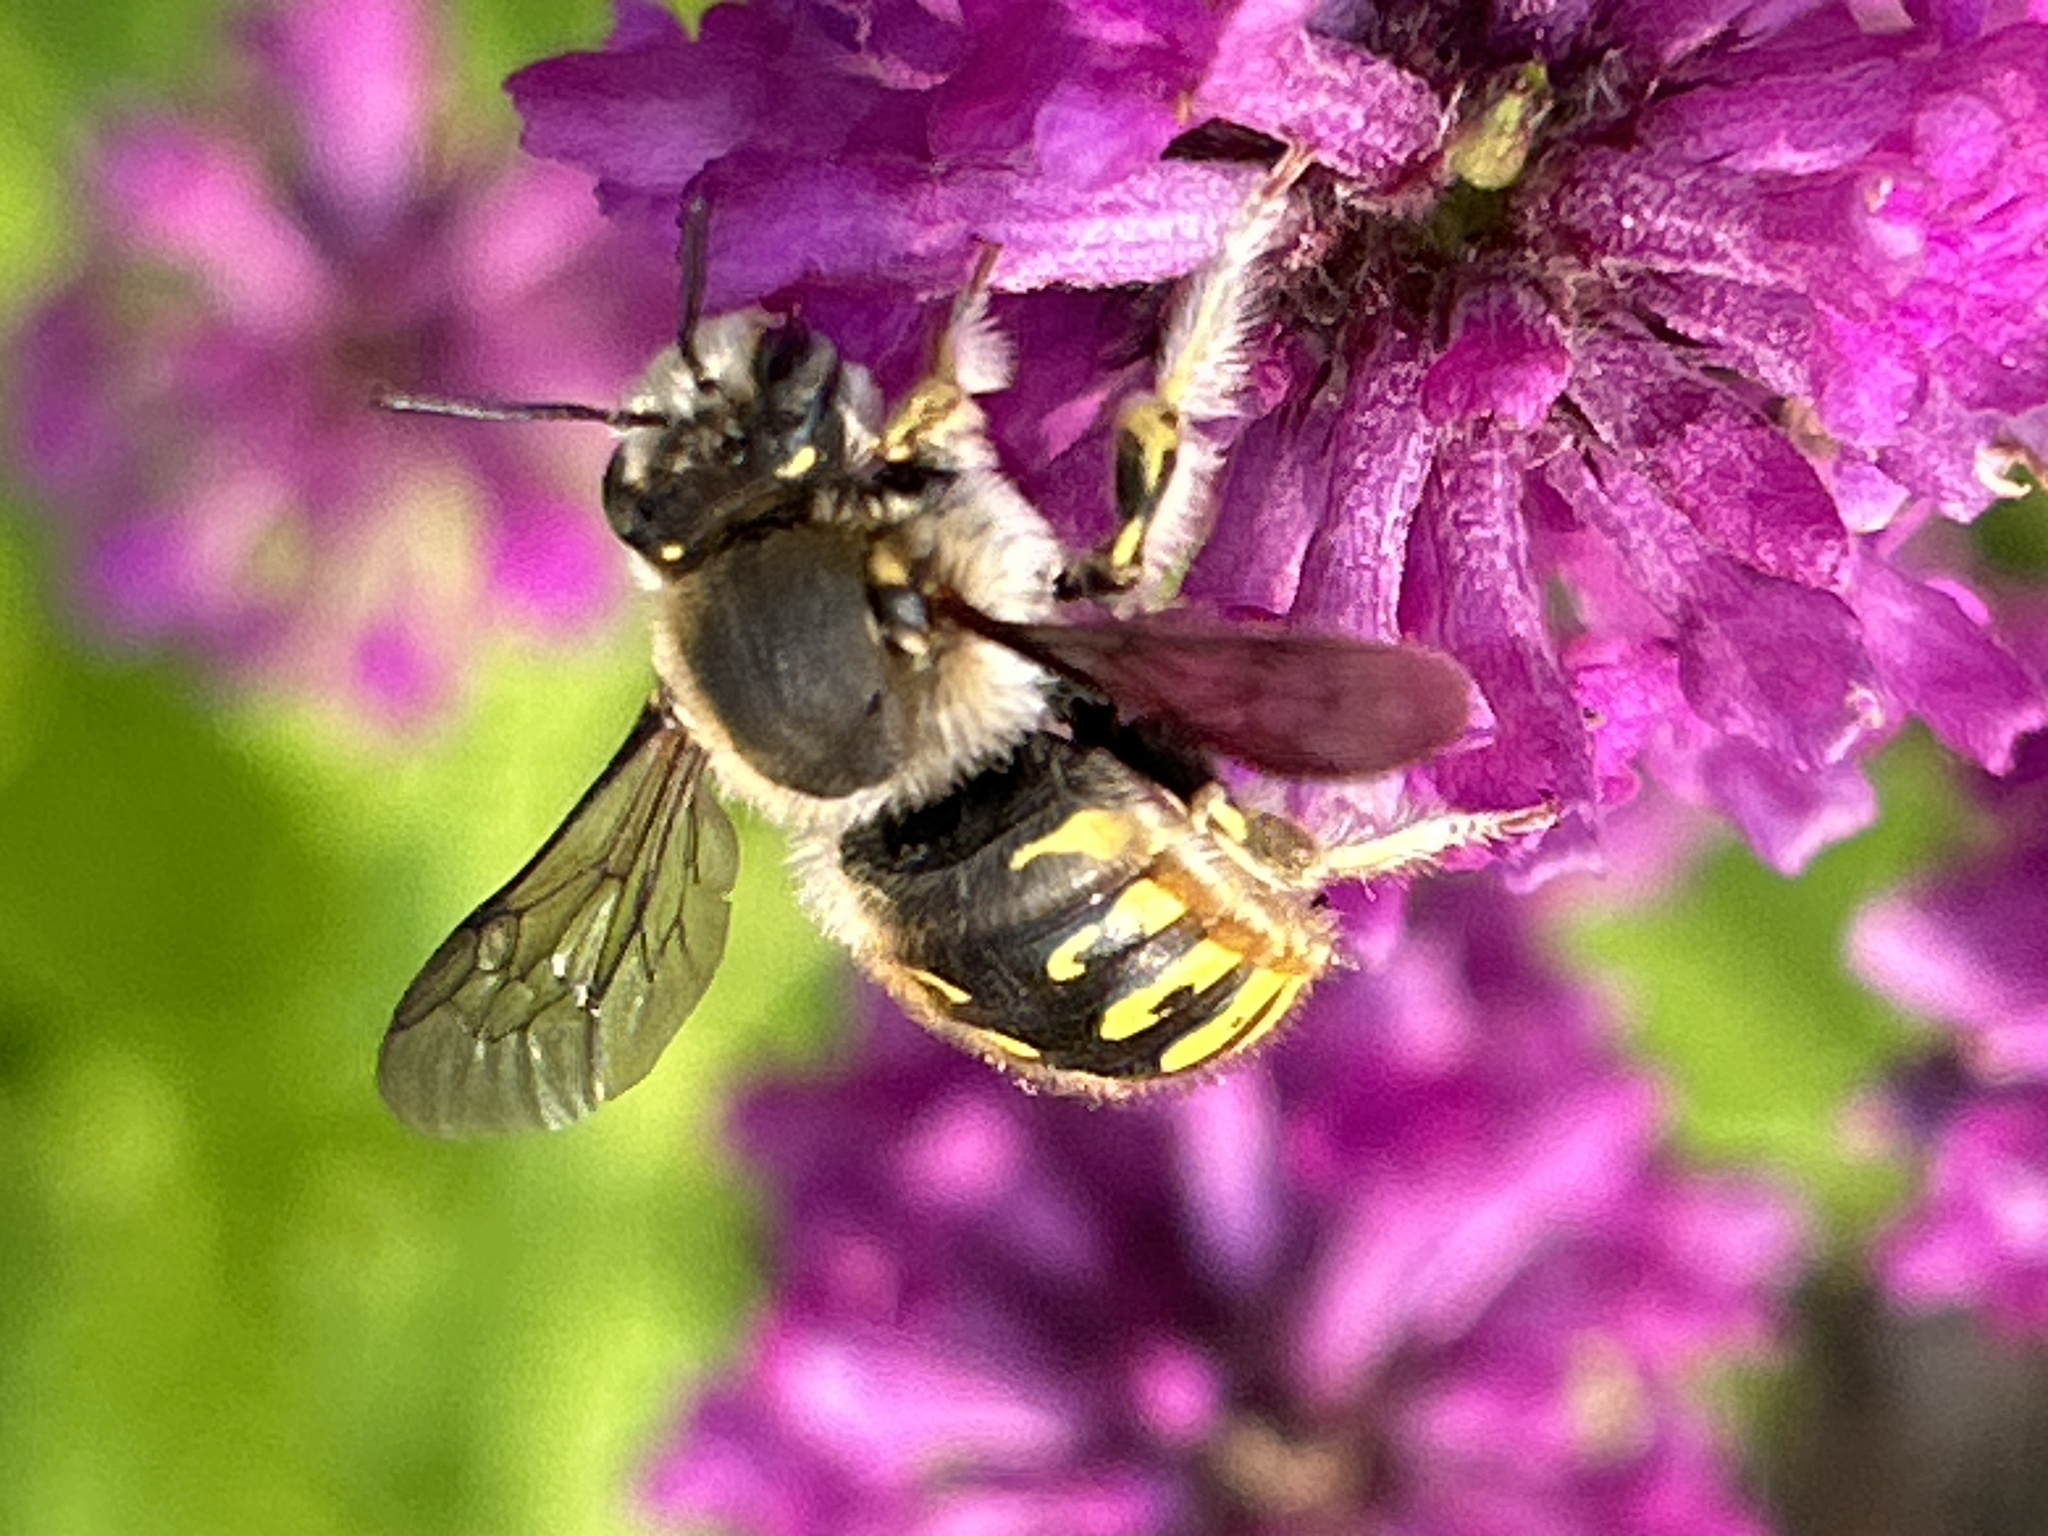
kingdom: Animalia
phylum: Arthropoda
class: Insecta
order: Hymenoptera
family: Megachilidae
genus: Anthidium
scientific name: Anthidium manicatum
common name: Wool carder bee
